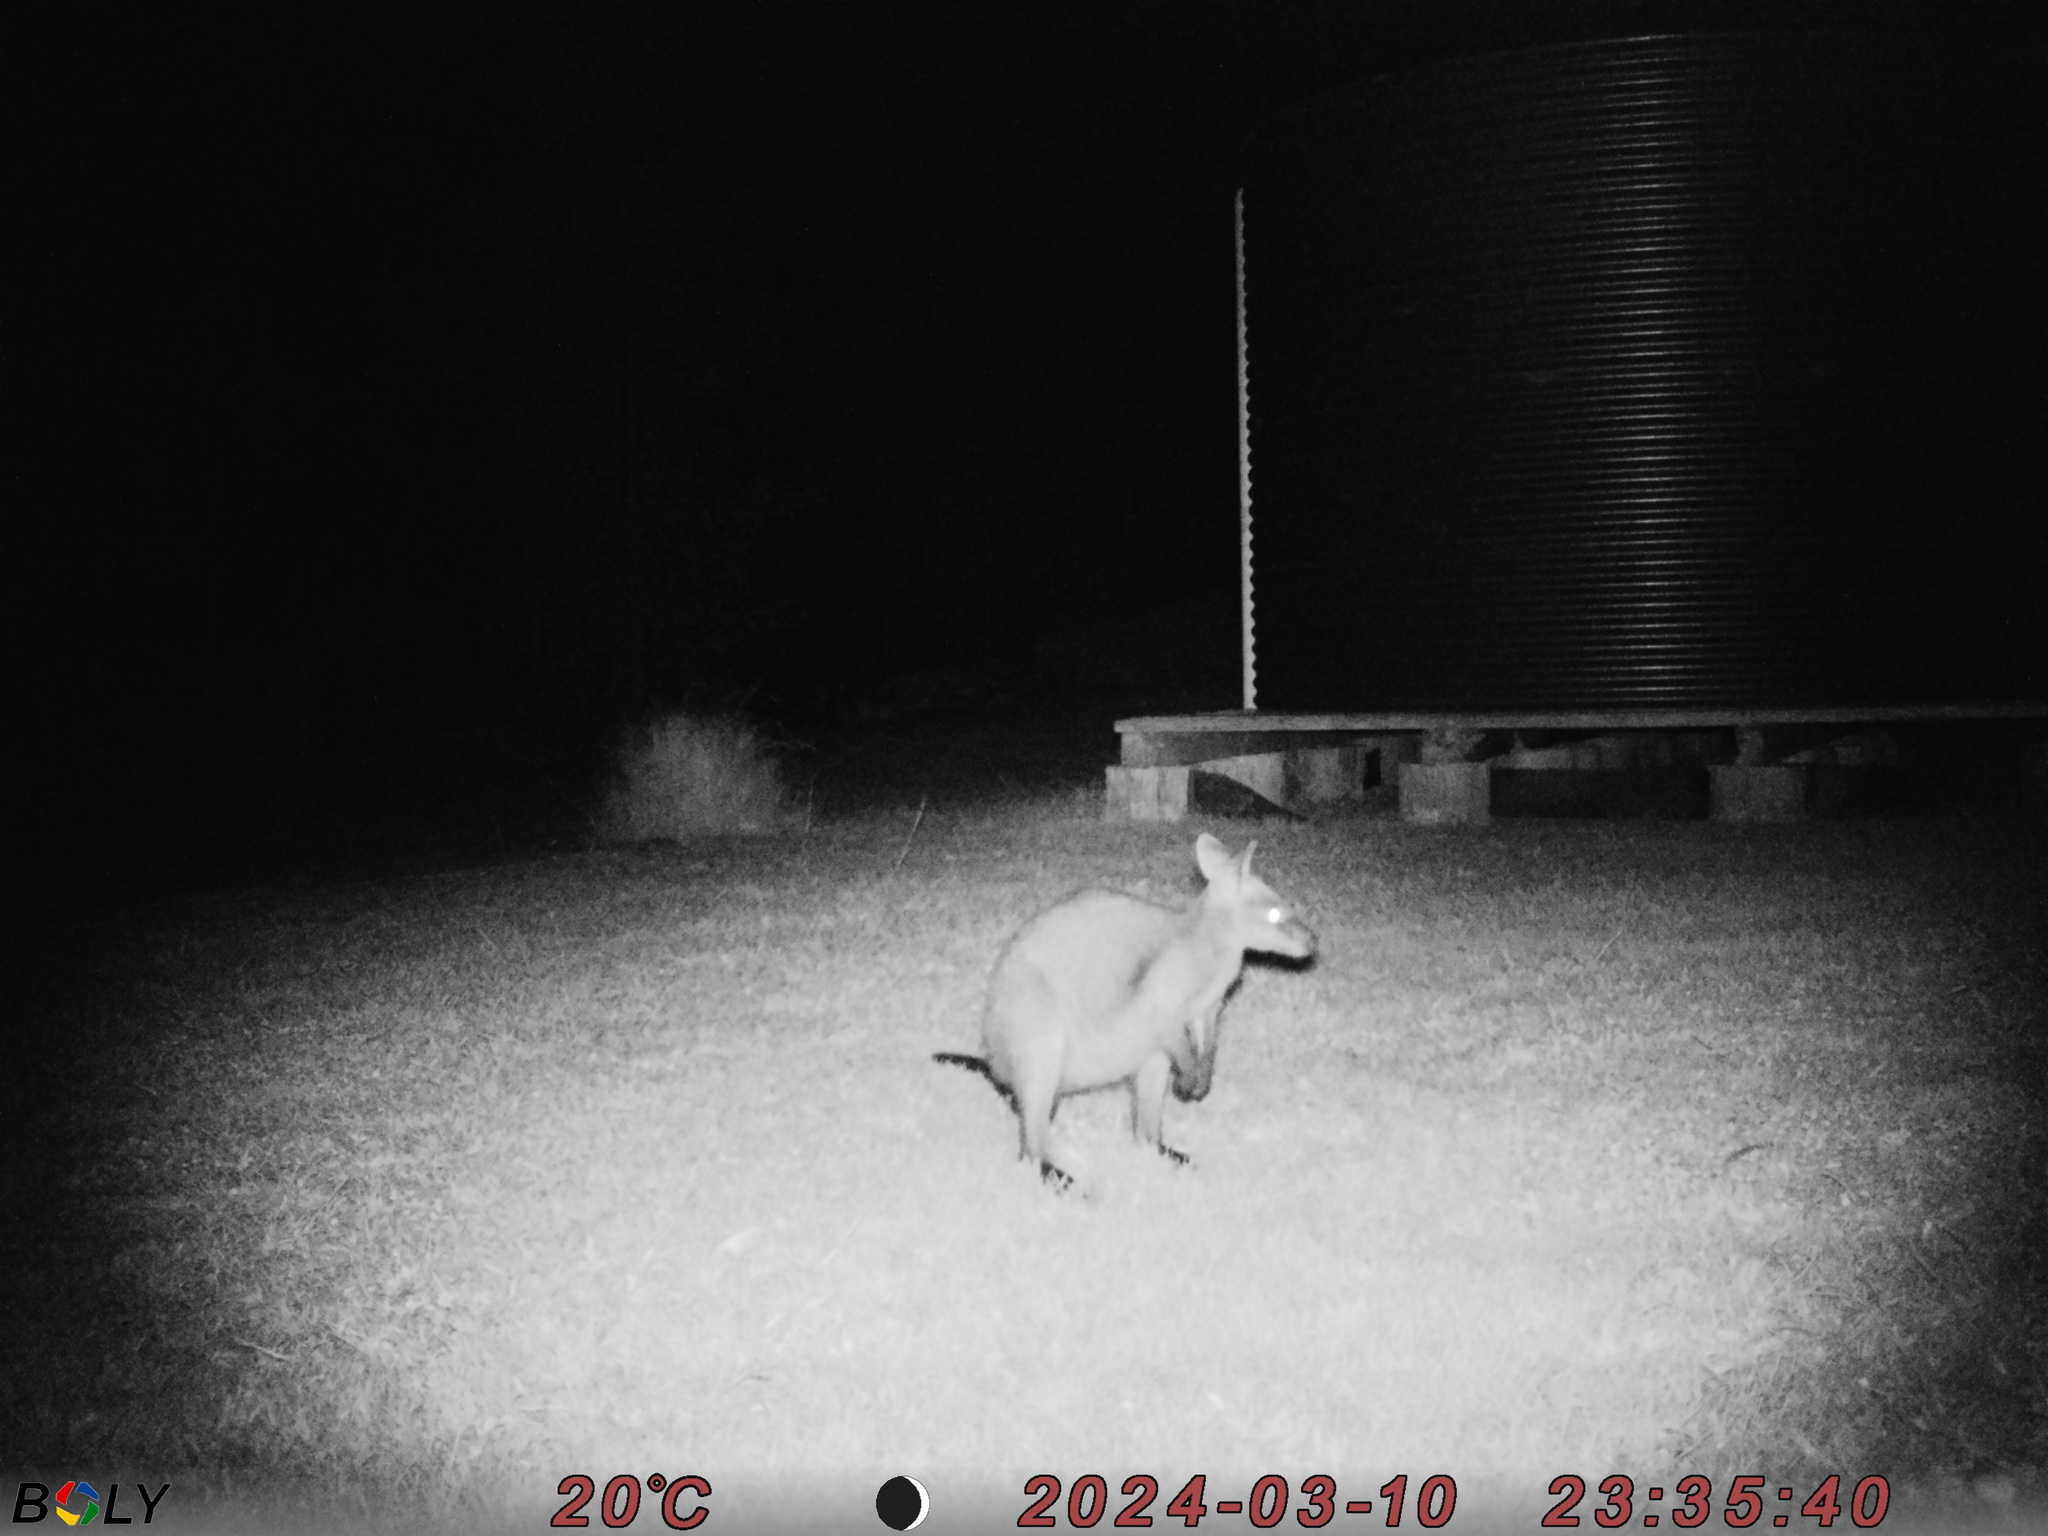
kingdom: Animalia
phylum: Chordata
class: Mammalia
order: Diprotodontia
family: Macropodidae
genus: Wallabia
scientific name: Wallabia bicolor
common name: Swamp wallaby
